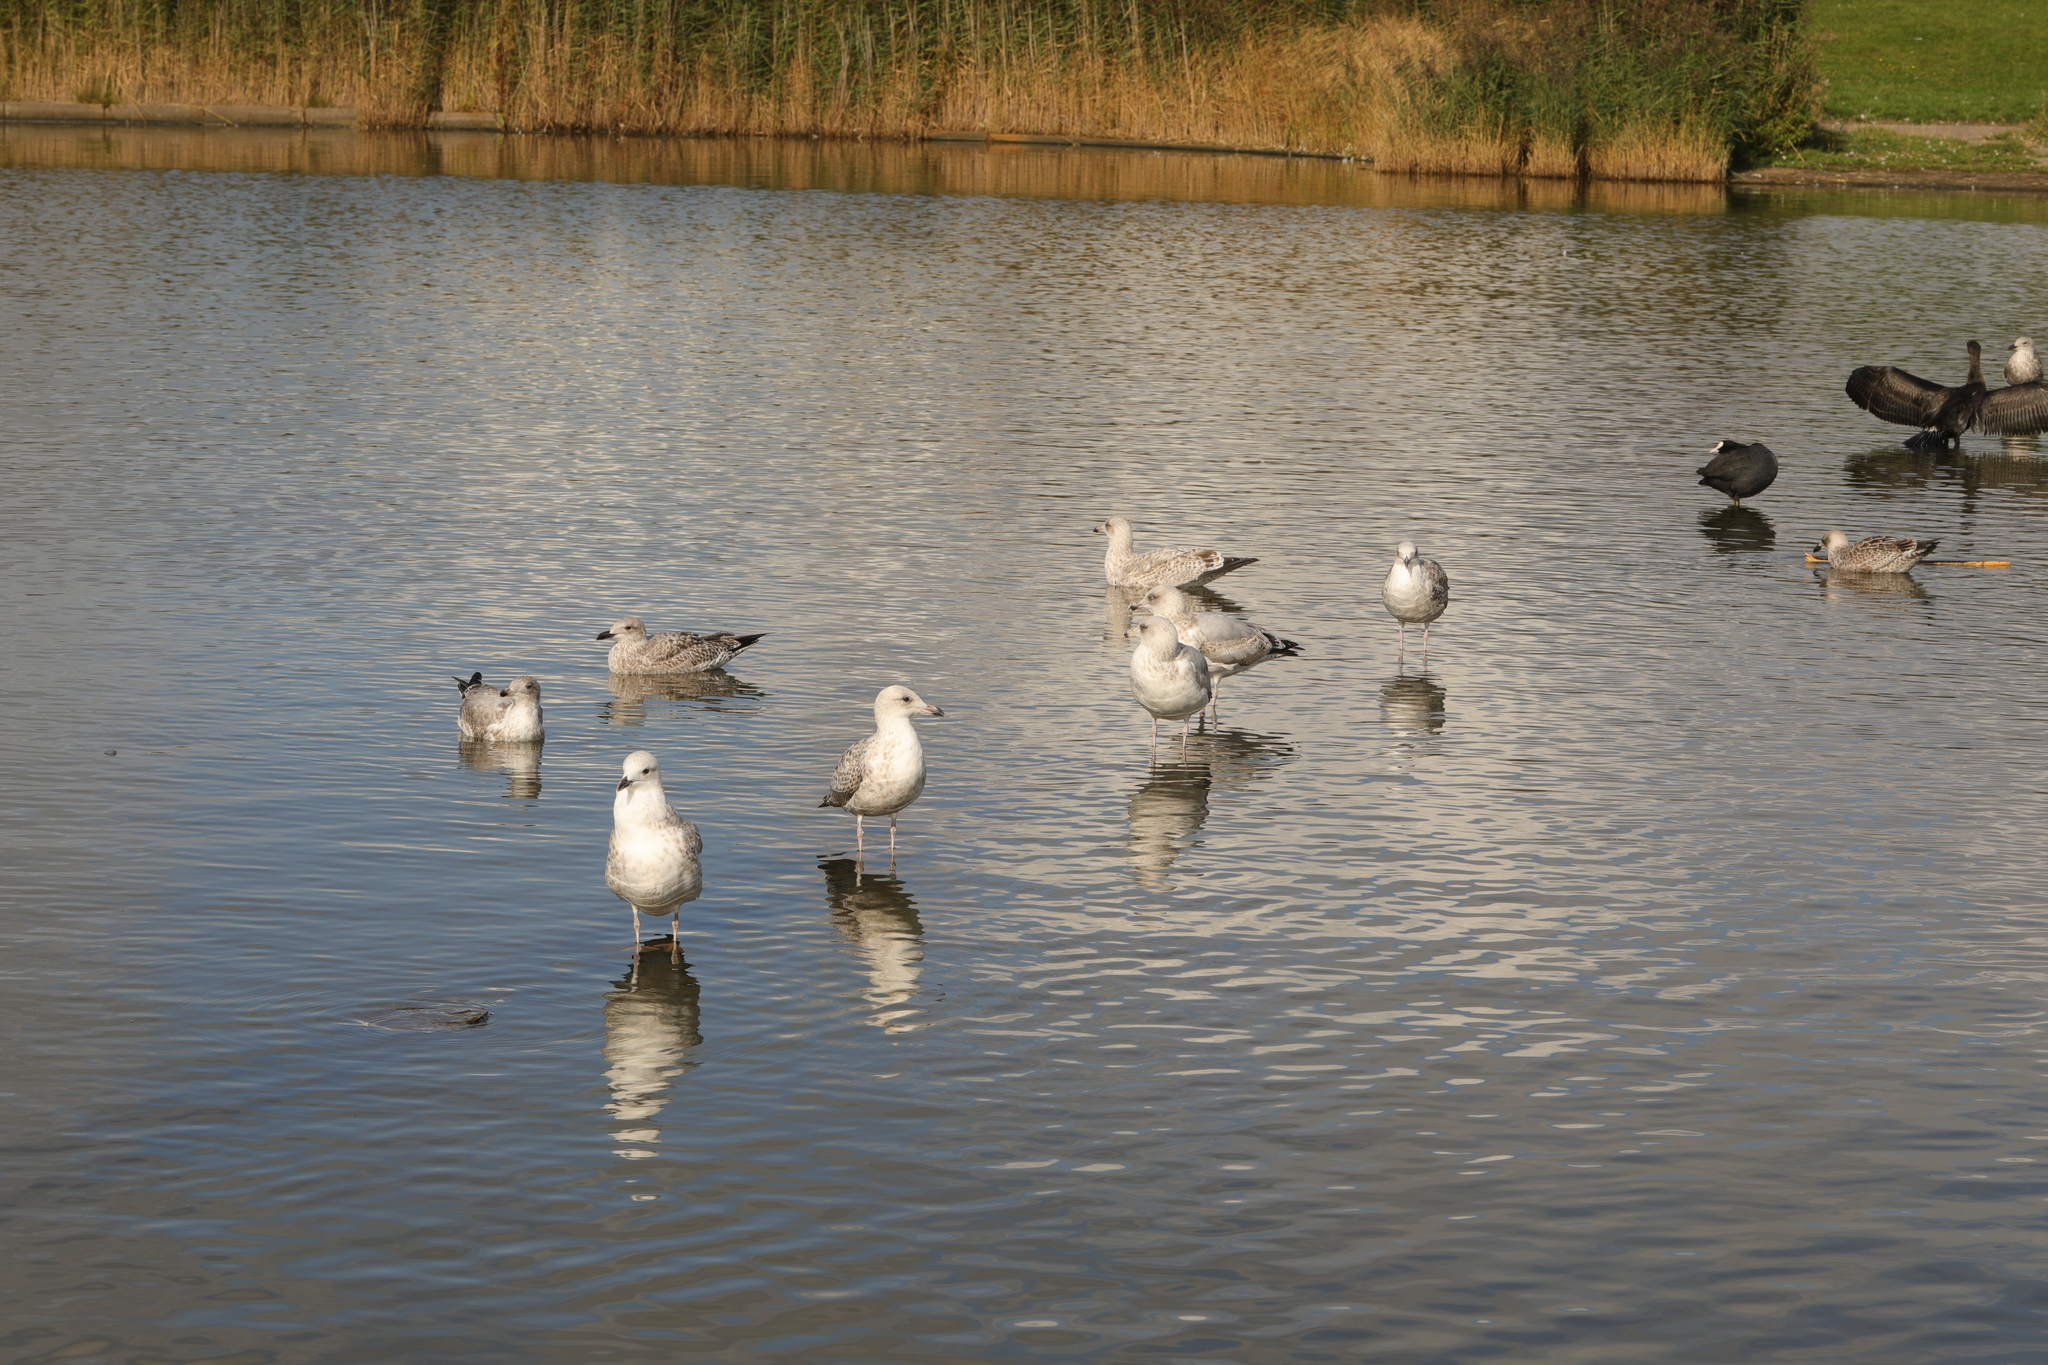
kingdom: Animalia
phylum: Chordata
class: Aves
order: Charadriiformes
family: Laridae
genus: Larus
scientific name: Larus argentatus
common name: Herring gull
